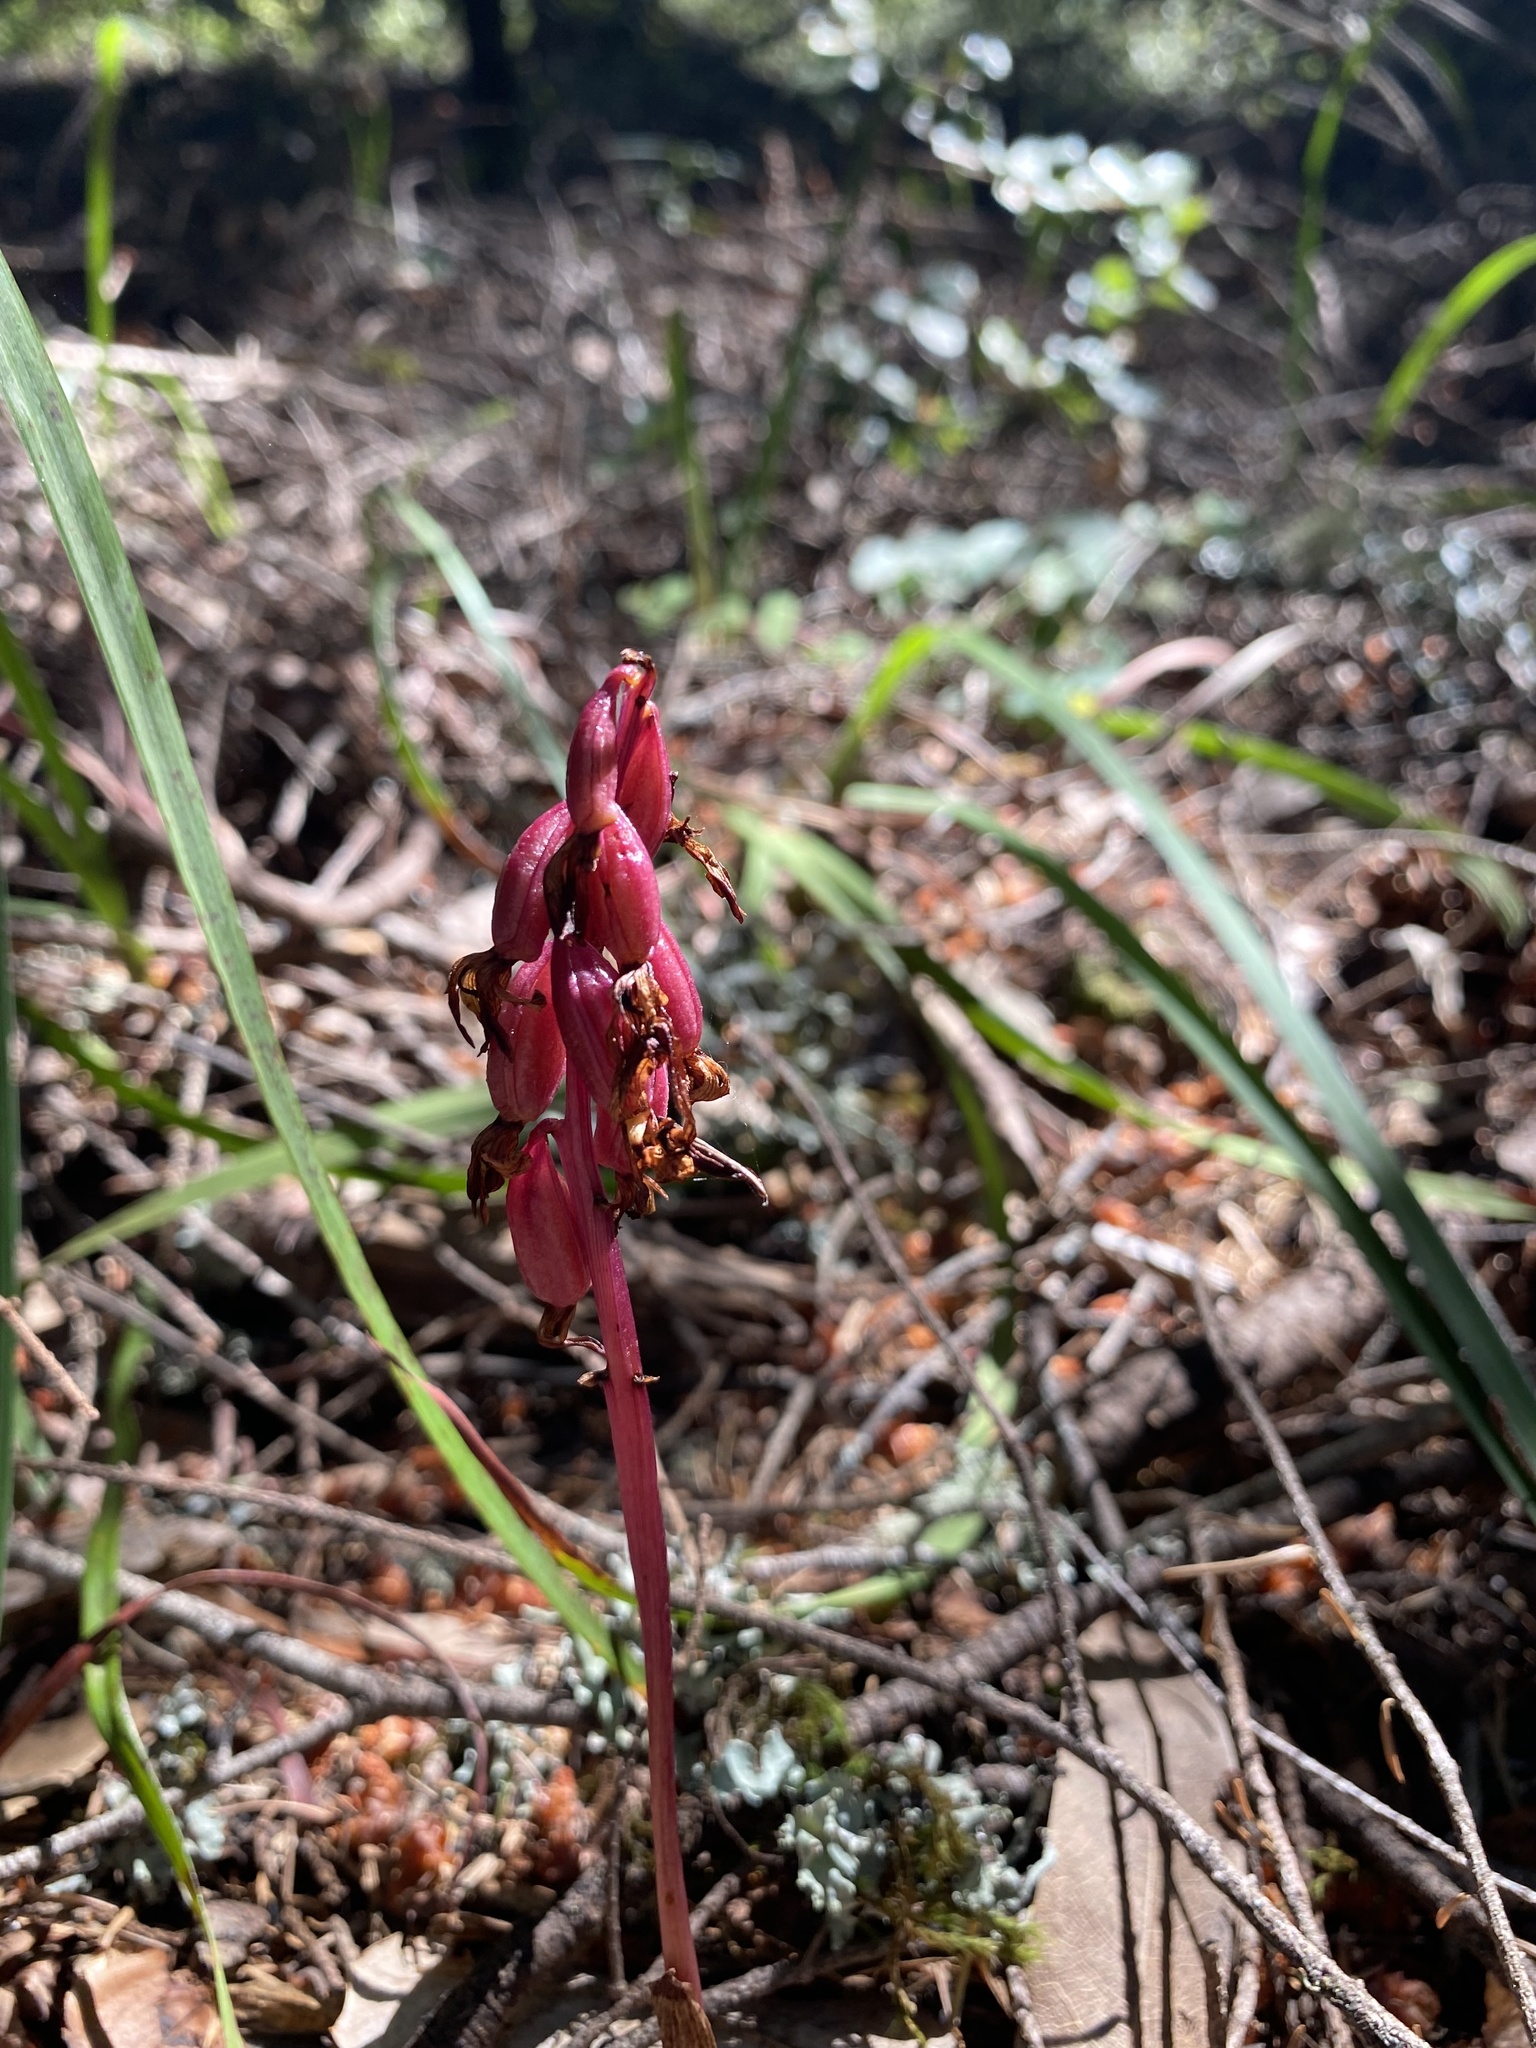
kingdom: Plantae
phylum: Tracheophyta
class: Liliopsida
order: Asparagales
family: Orchidaceae
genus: Corallorhiza
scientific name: Corallorhiza maculata
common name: Spotted coralroot
